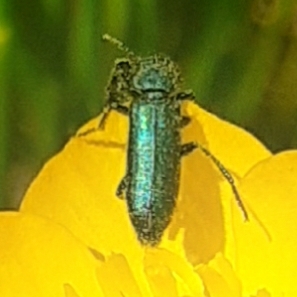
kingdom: Animalia
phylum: Arthropoda
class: Insecta
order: Coleoptera
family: Dasytidae
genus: Psilothrix
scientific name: Psilothrix viridicoerulea
